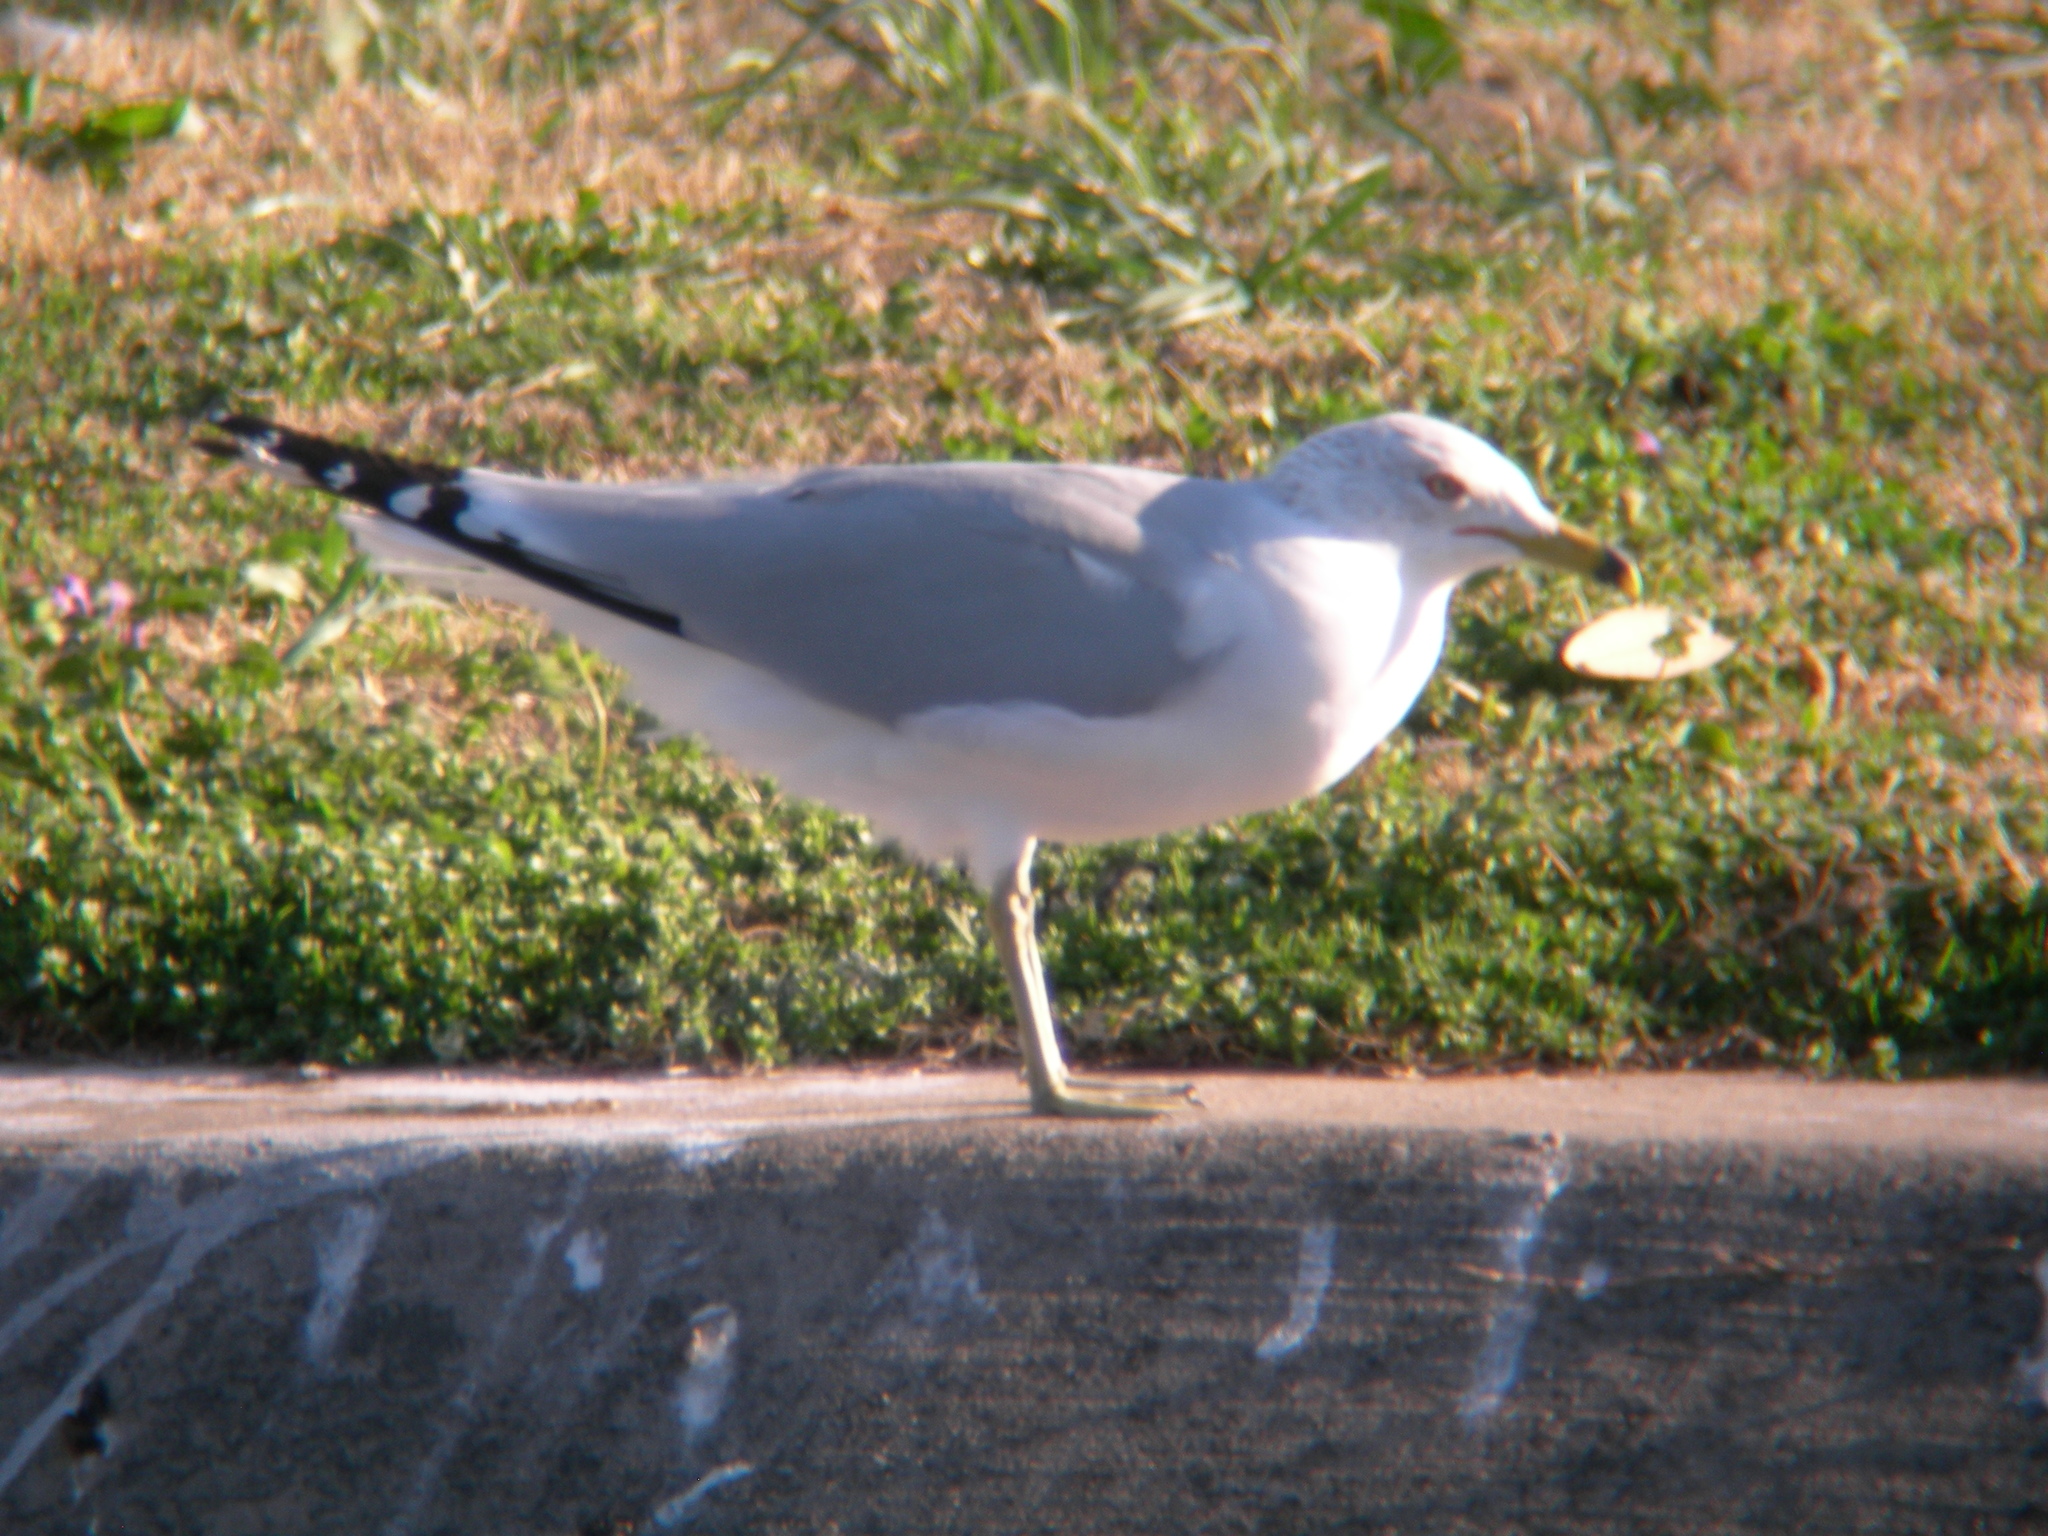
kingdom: Animalia
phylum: Chordata
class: Aves
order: Charadriiformes
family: Laridae
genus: Larus
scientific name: Larus delawarensis
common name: Ring-billed gull
